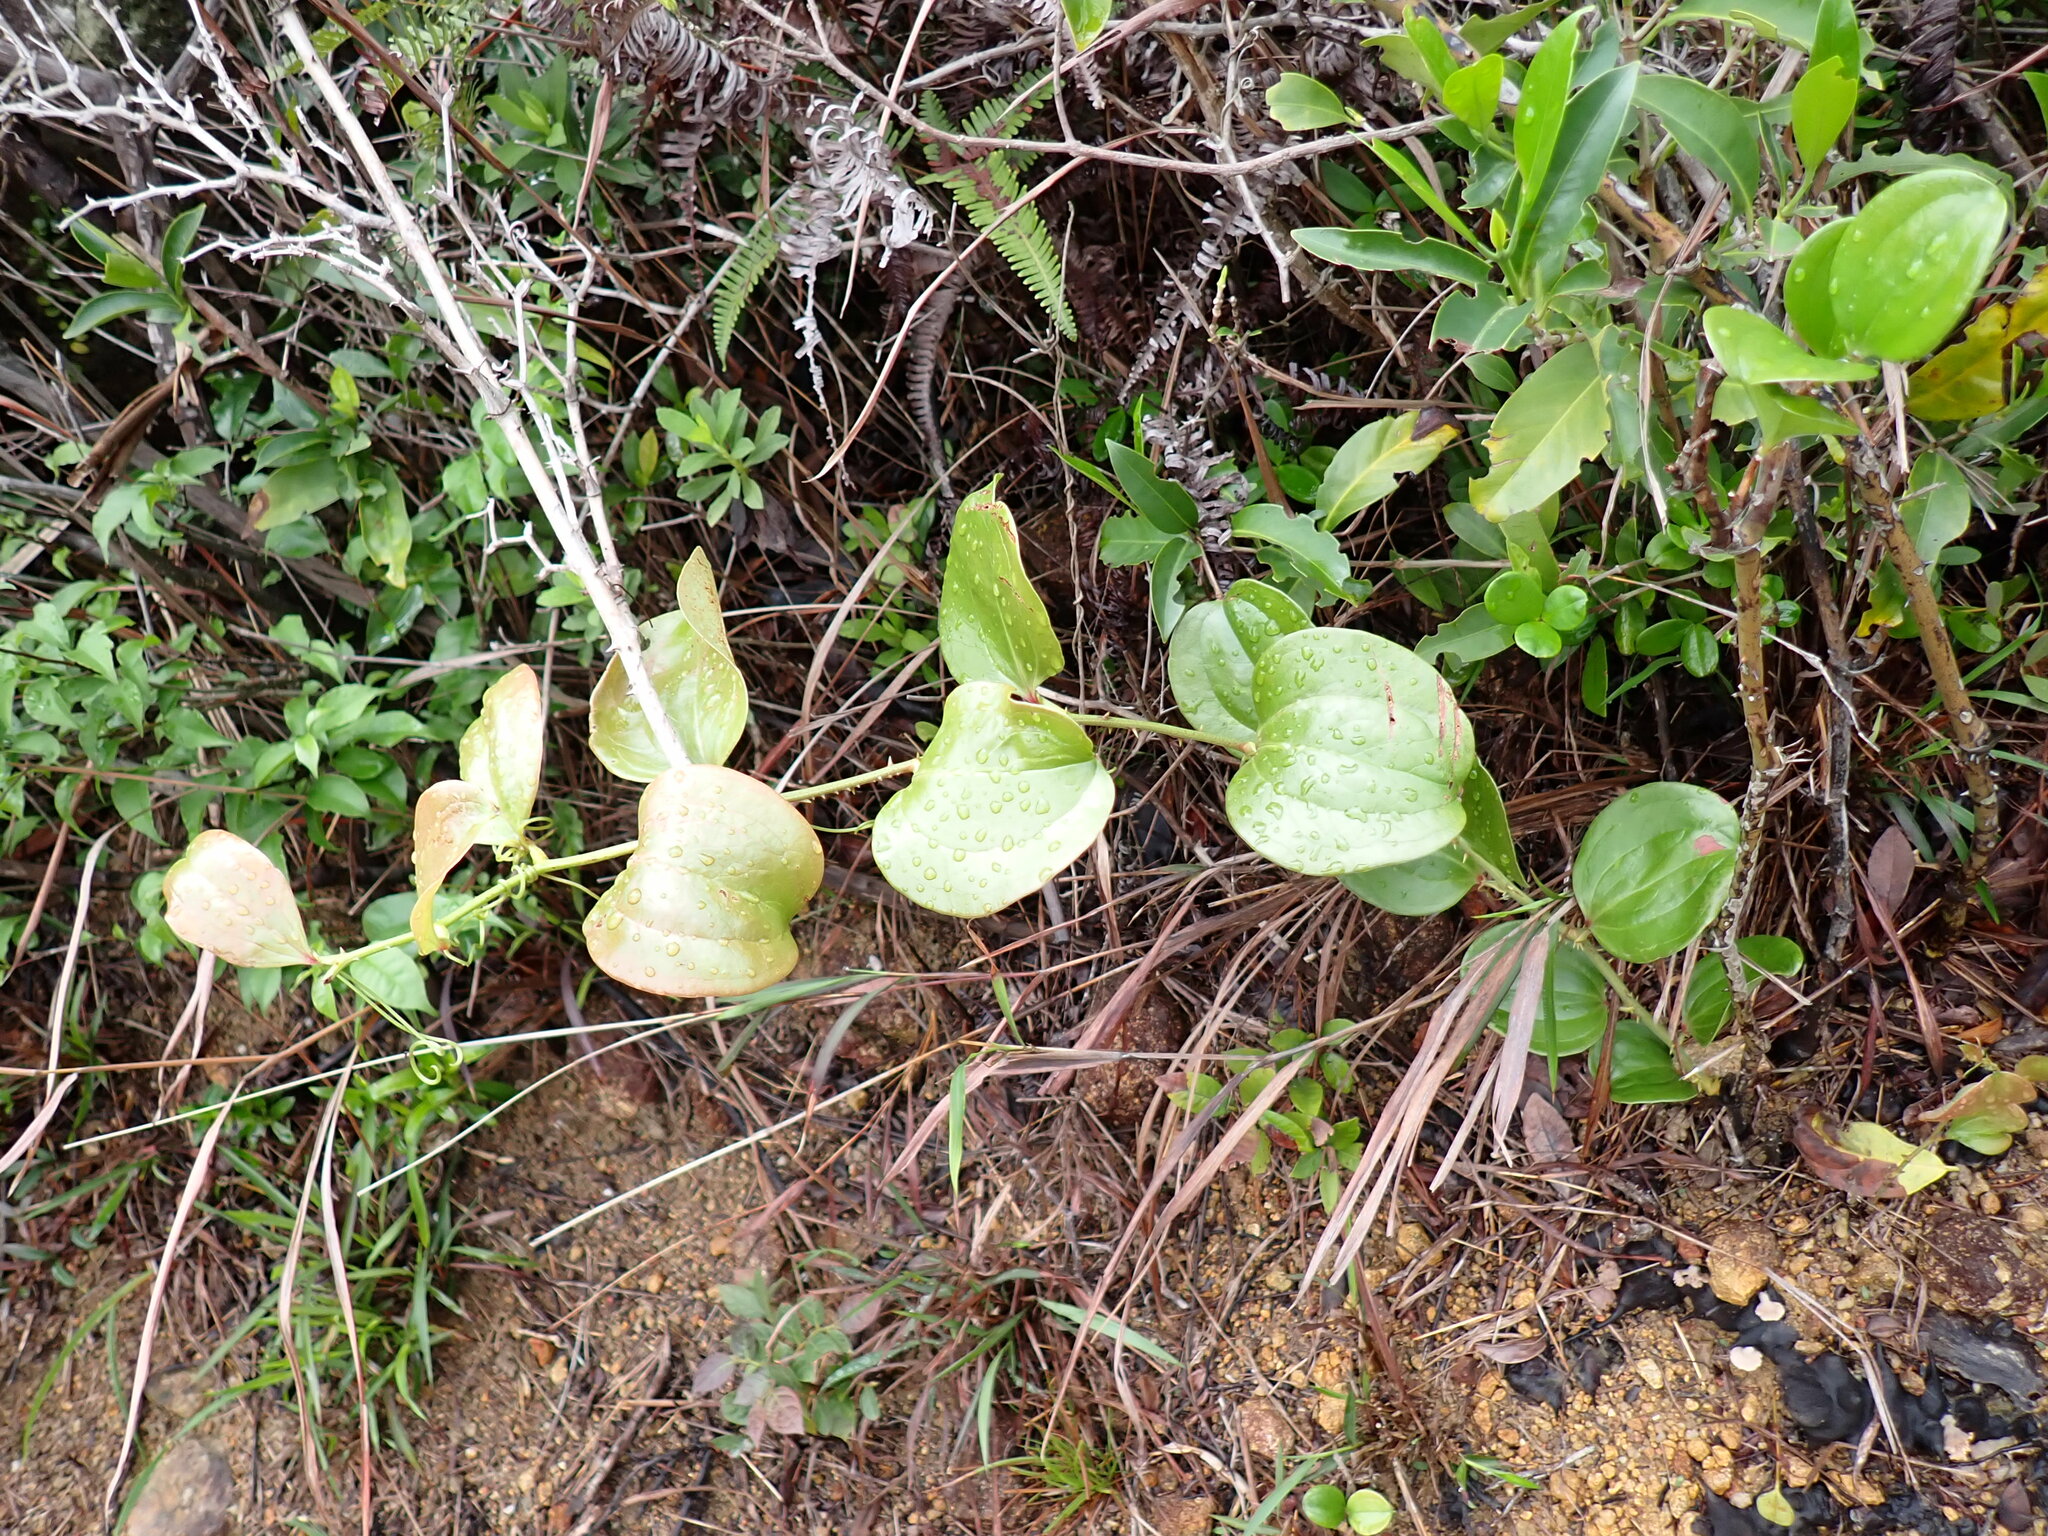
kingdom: Plantae
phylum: Tracheophyta
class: Liliopsida
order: Liliales
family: Smilacaceae
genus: Smilax
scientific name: Smilax china
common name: Chinaroot
